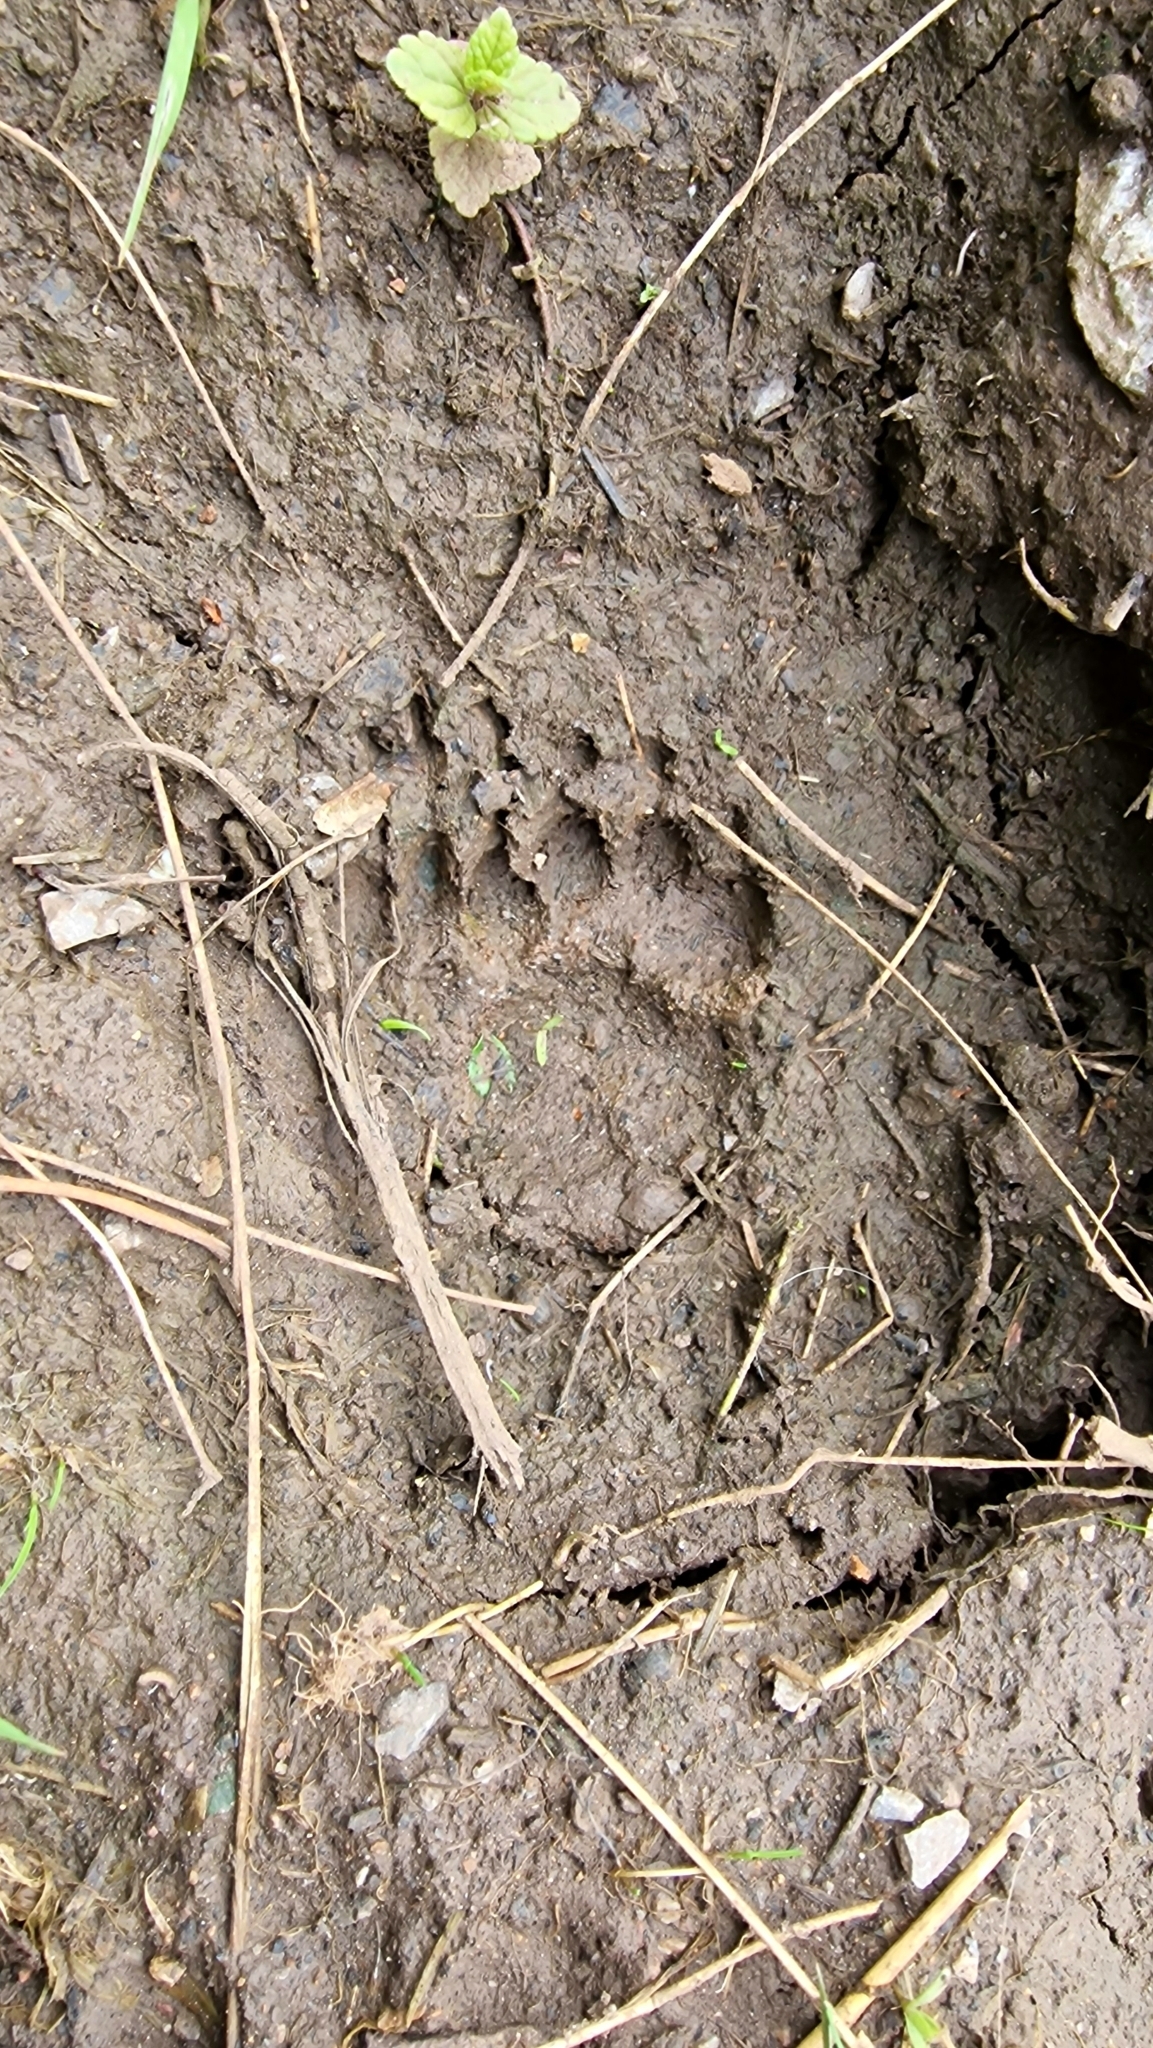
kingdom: Animalia
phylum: Chordata
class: Mammalia
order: Carnivora
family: Mustelidae
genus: Meles
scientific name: Meles meles
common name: Eurasian badger
